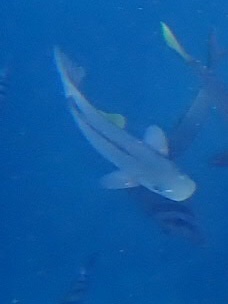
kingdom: Animalia
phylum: Chordata
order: Perciformes
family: Kyphosidae
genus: Girella
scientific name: Girella freminvillii
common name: Dusky sea-chub
